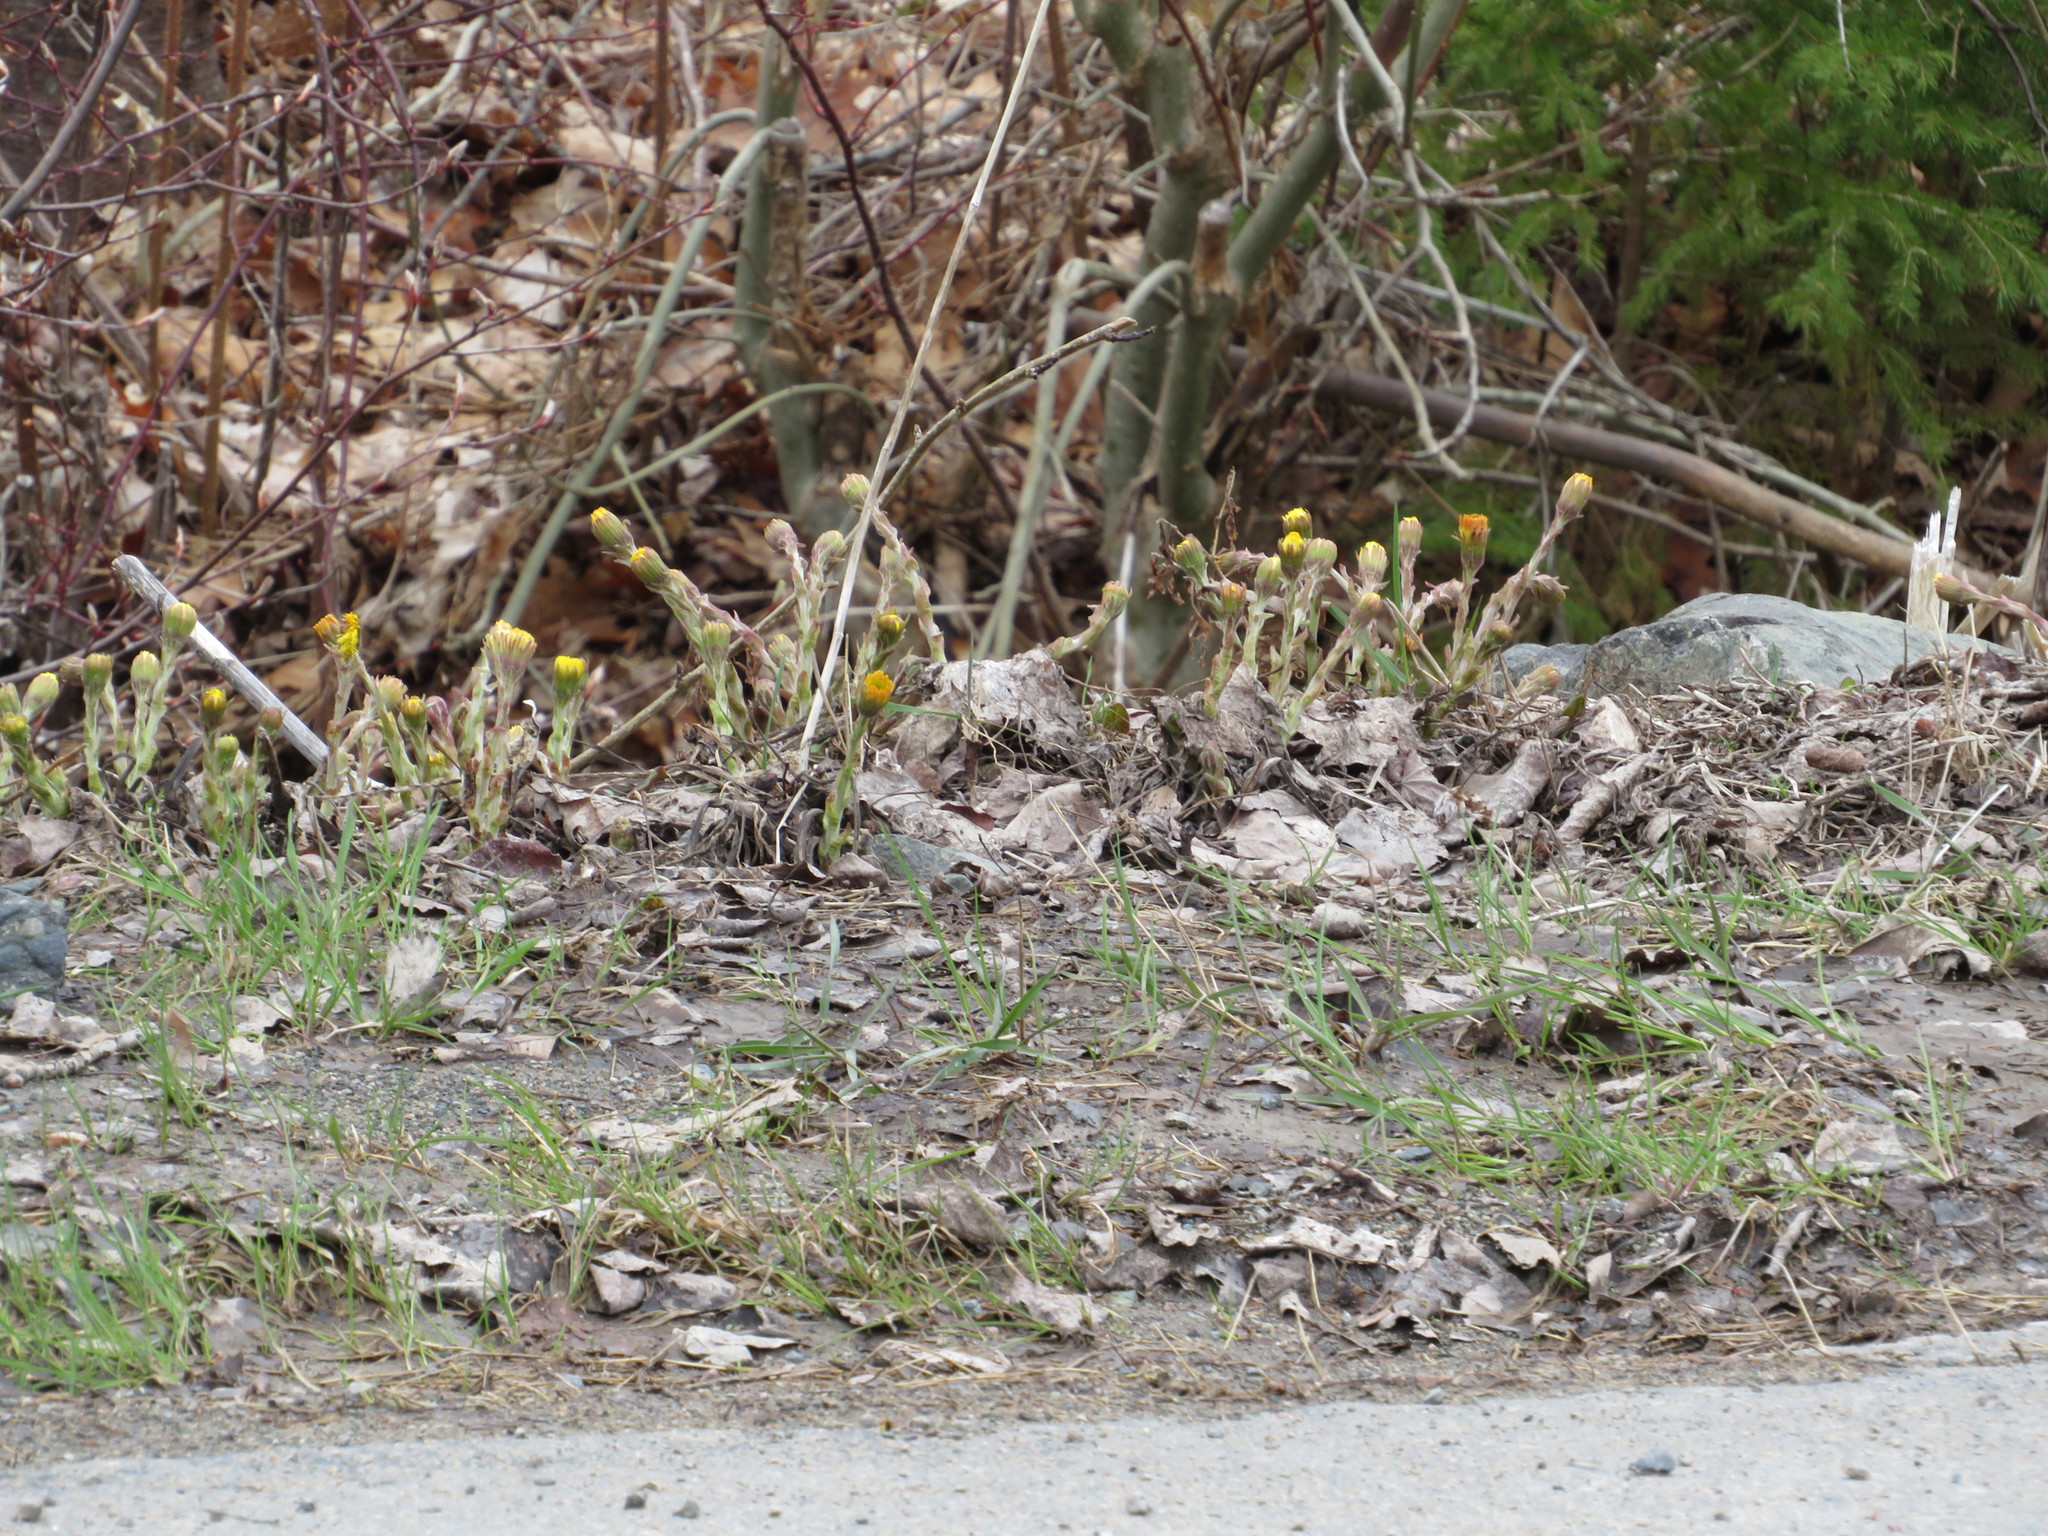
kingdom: Plantae
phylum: Tracheophyta
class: Magnoliopsida
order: Asterales
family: Asteraceae
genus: Tussilago
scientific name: Tussilago farfara
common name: Coltsfoot
